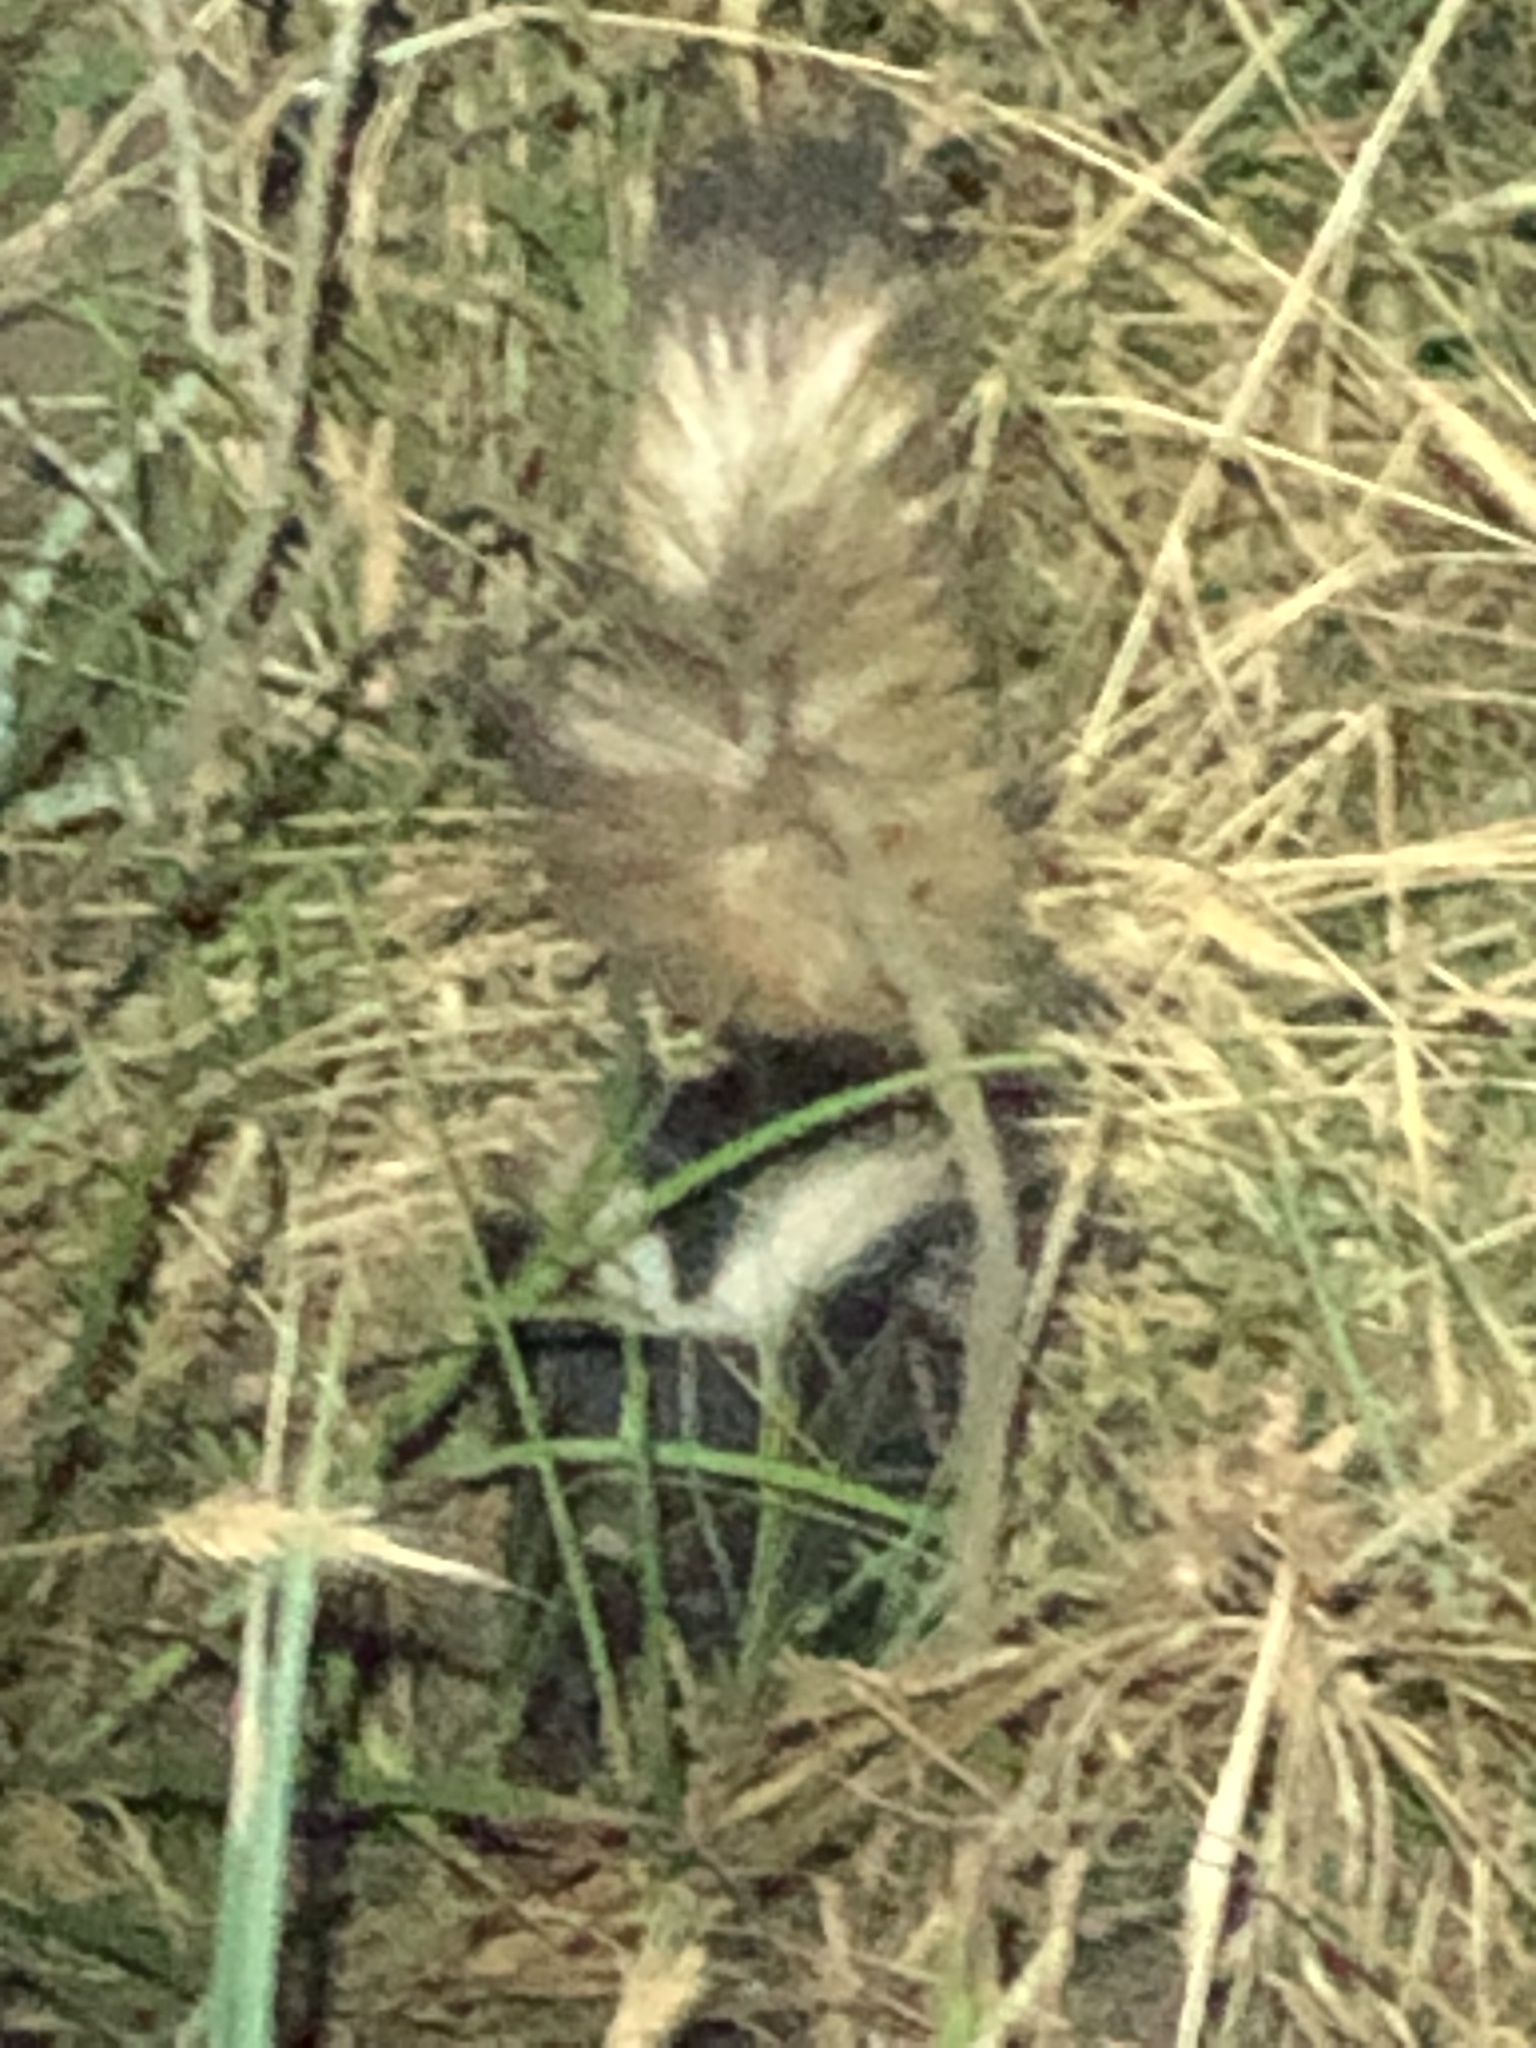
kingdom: Animalia
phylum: Chordata
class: Mammalia
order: Carnivora
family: Mephitidae
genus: Mephitis
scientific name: Mephitis mephitis
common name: Striped skunk
